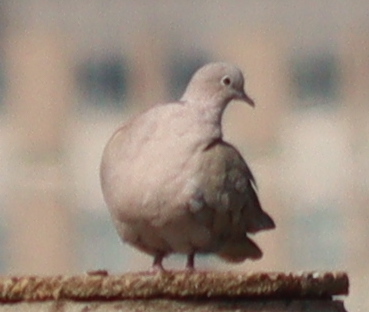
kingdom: Animalia
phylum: Chordata
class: Aves
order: Columbiformes
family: Columbidae
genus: Streptopelia
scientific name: Streptopelia decaocto
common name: Eurasian collared dove
